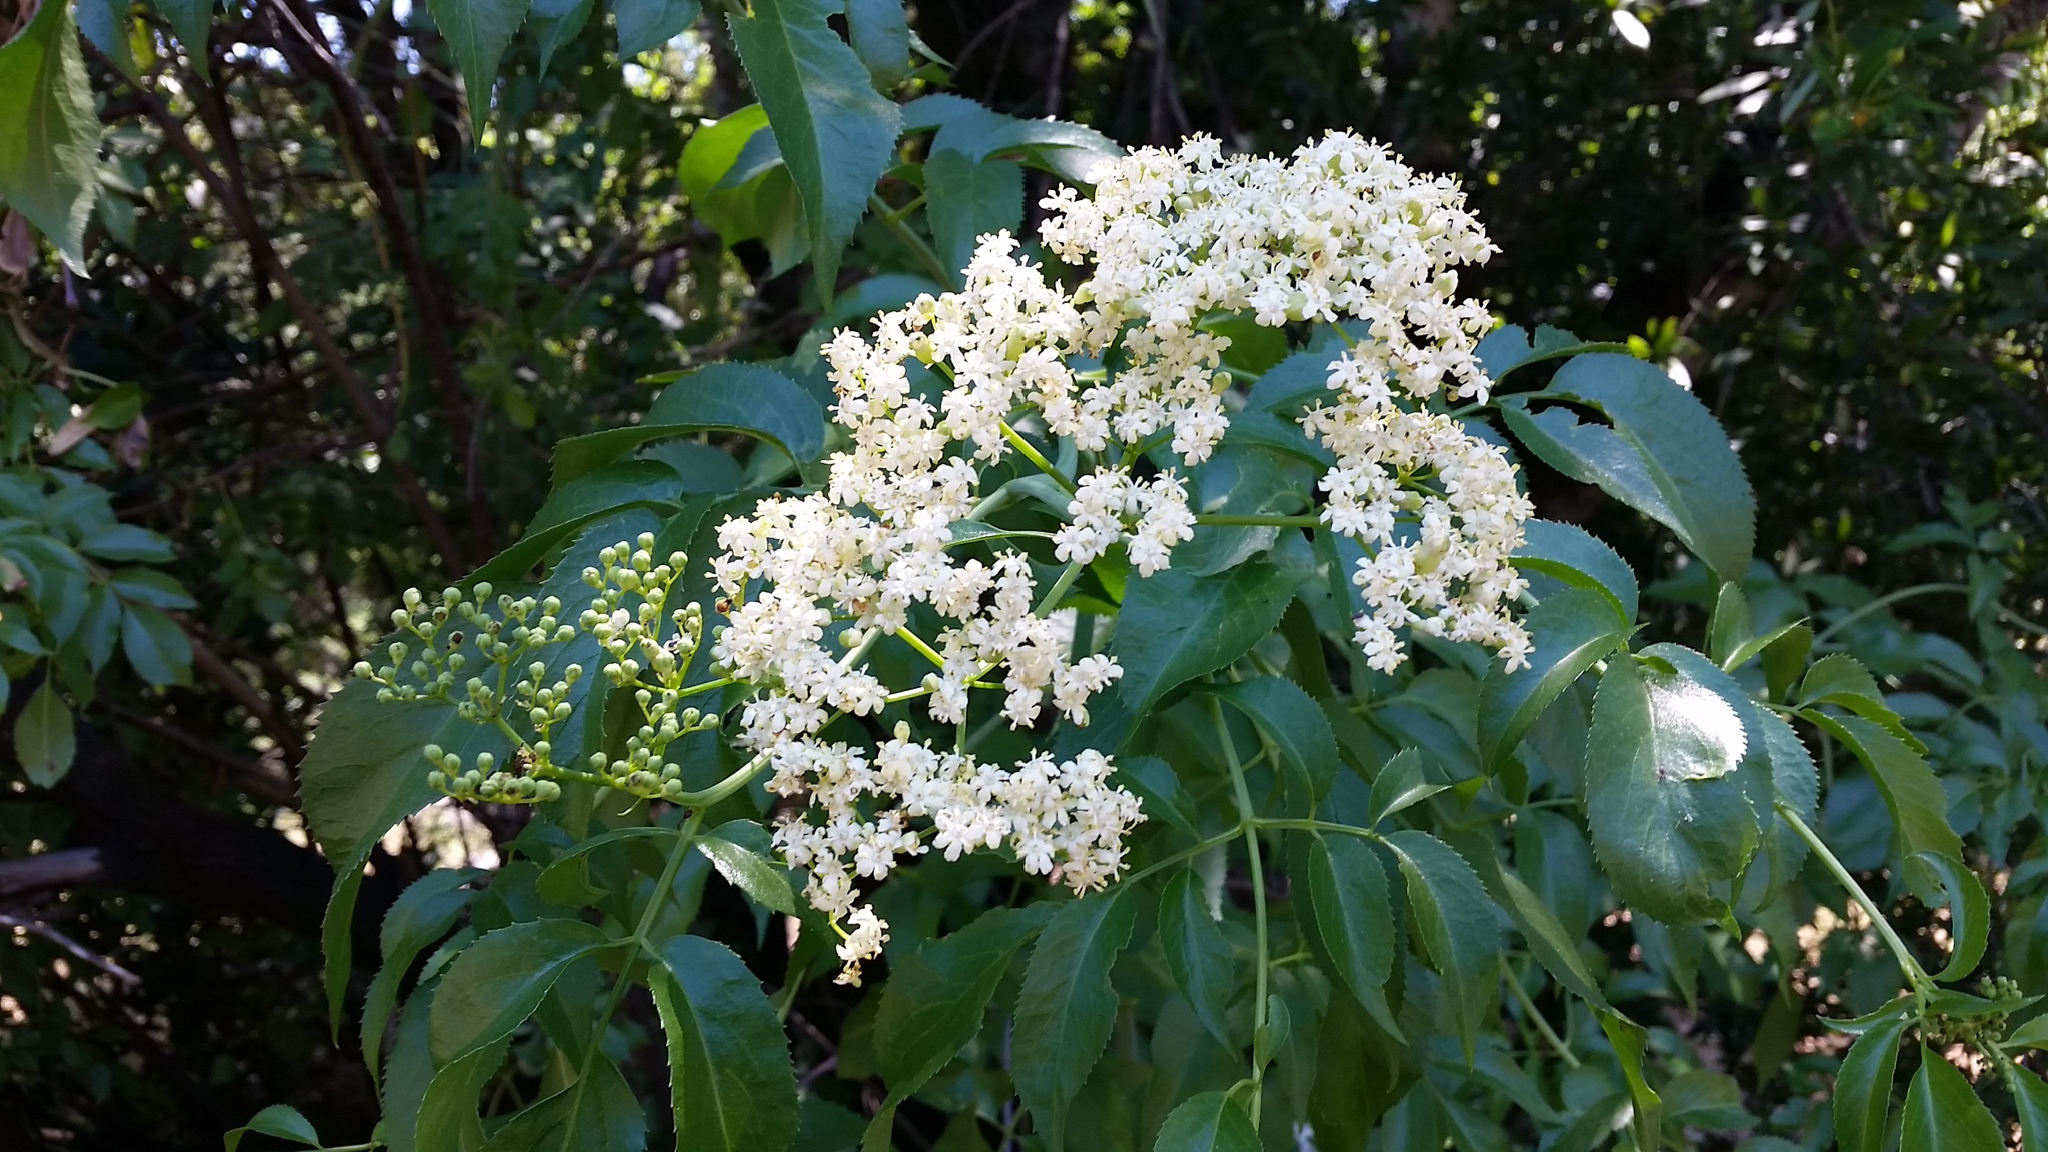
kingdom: Plantae
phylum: Tracheophyta
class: Magnoliopsida
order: Dipsacales
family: Viburnaceae
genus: Sambucus
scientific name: Sambucus cerulea
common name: Blue elder
